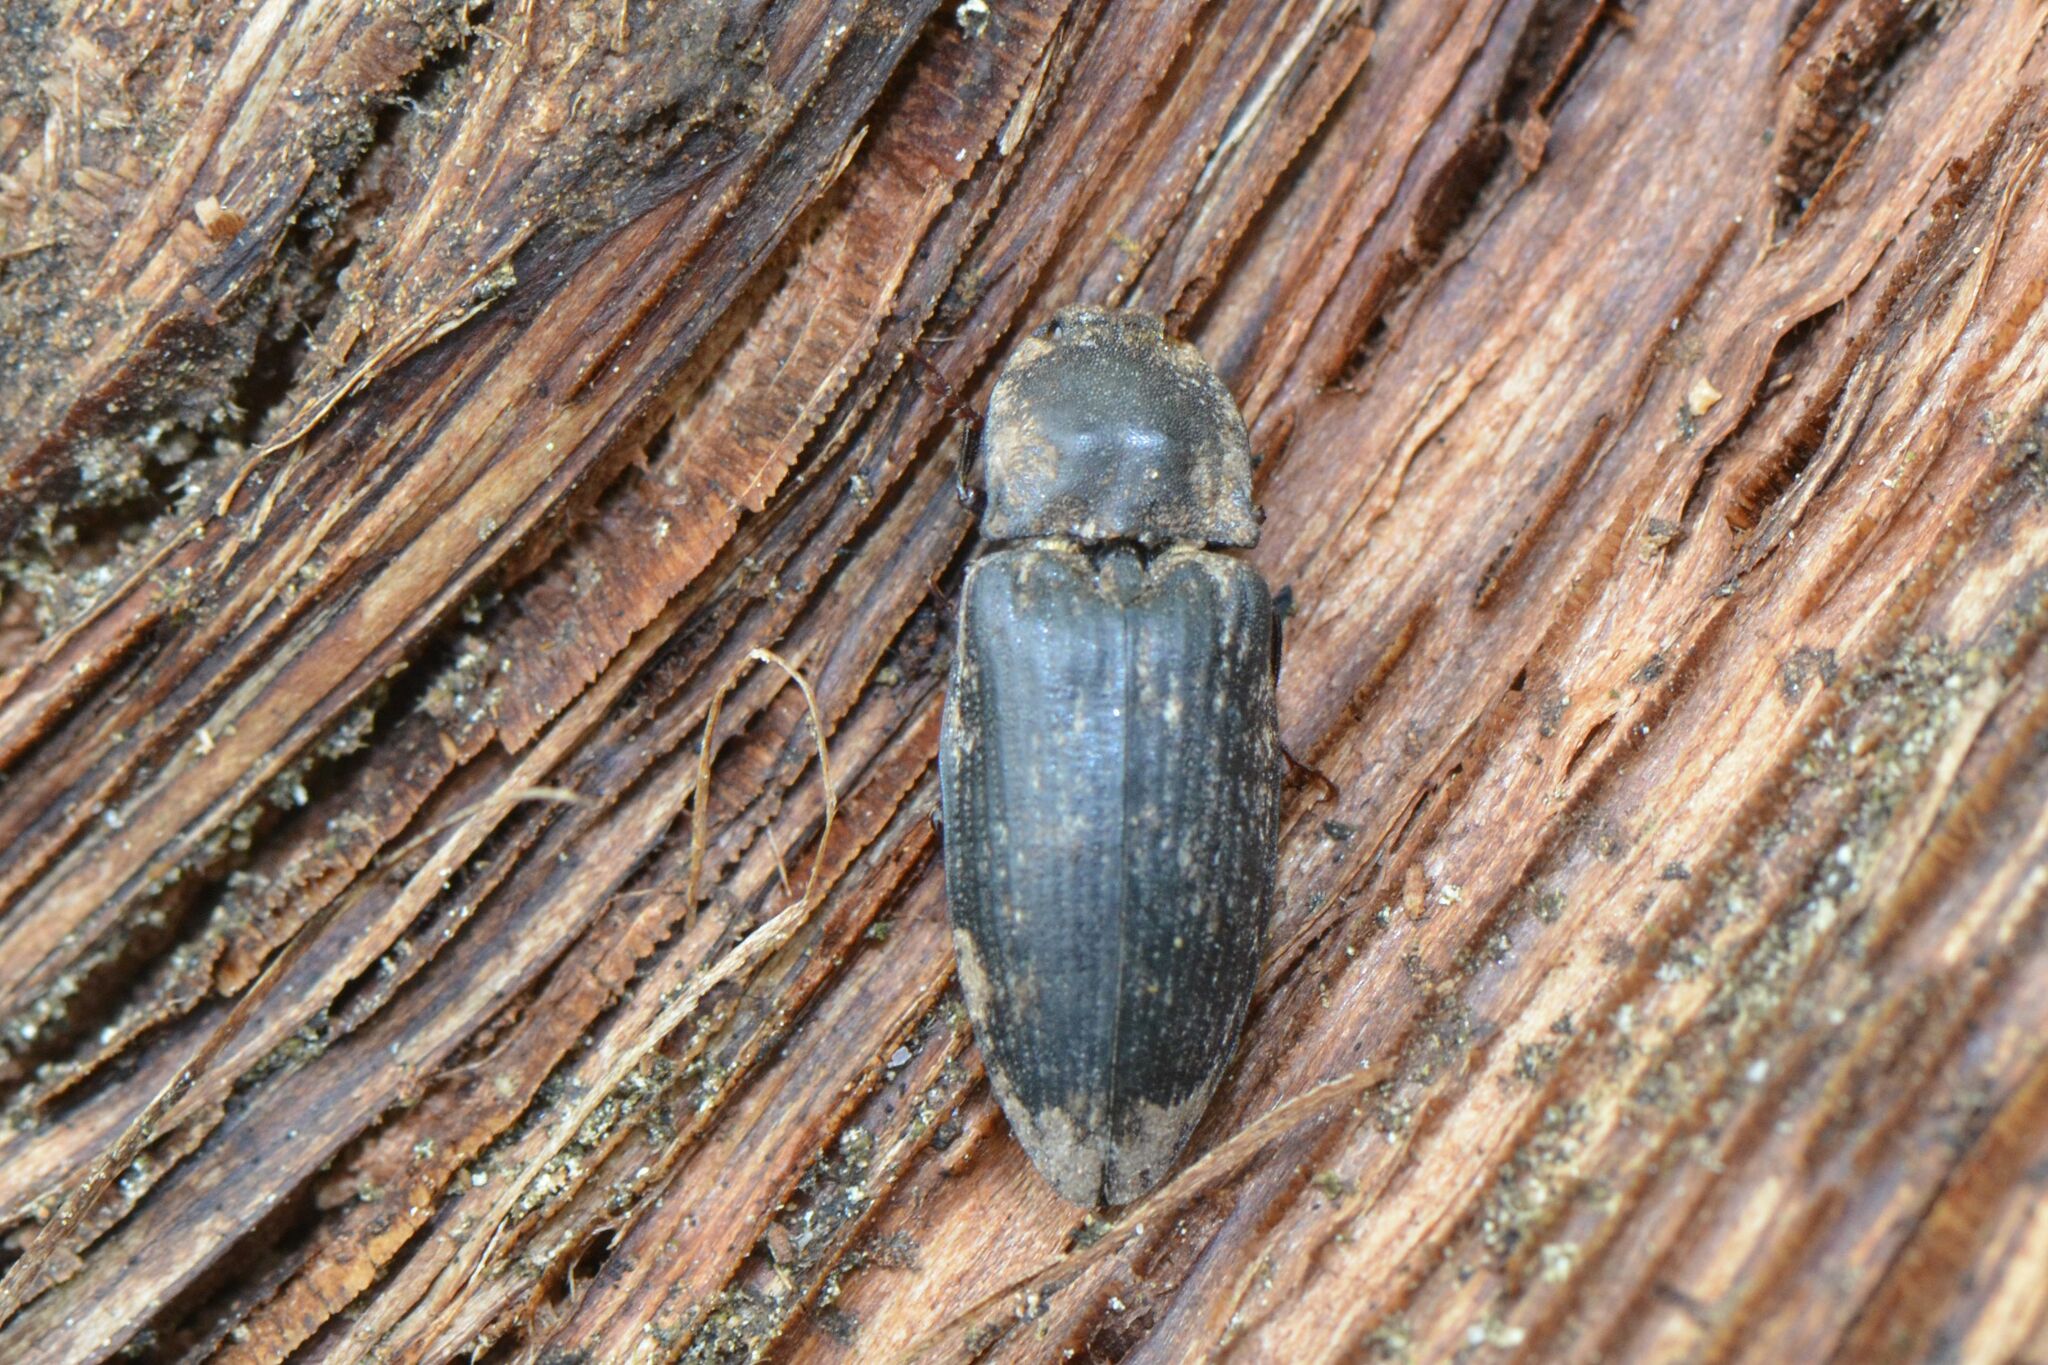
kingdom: Animalia
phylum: Arthropoda
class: Insecta
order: Coleoptera
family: Elateridae
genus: Agrypnus
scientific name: Agrypnus murinus
